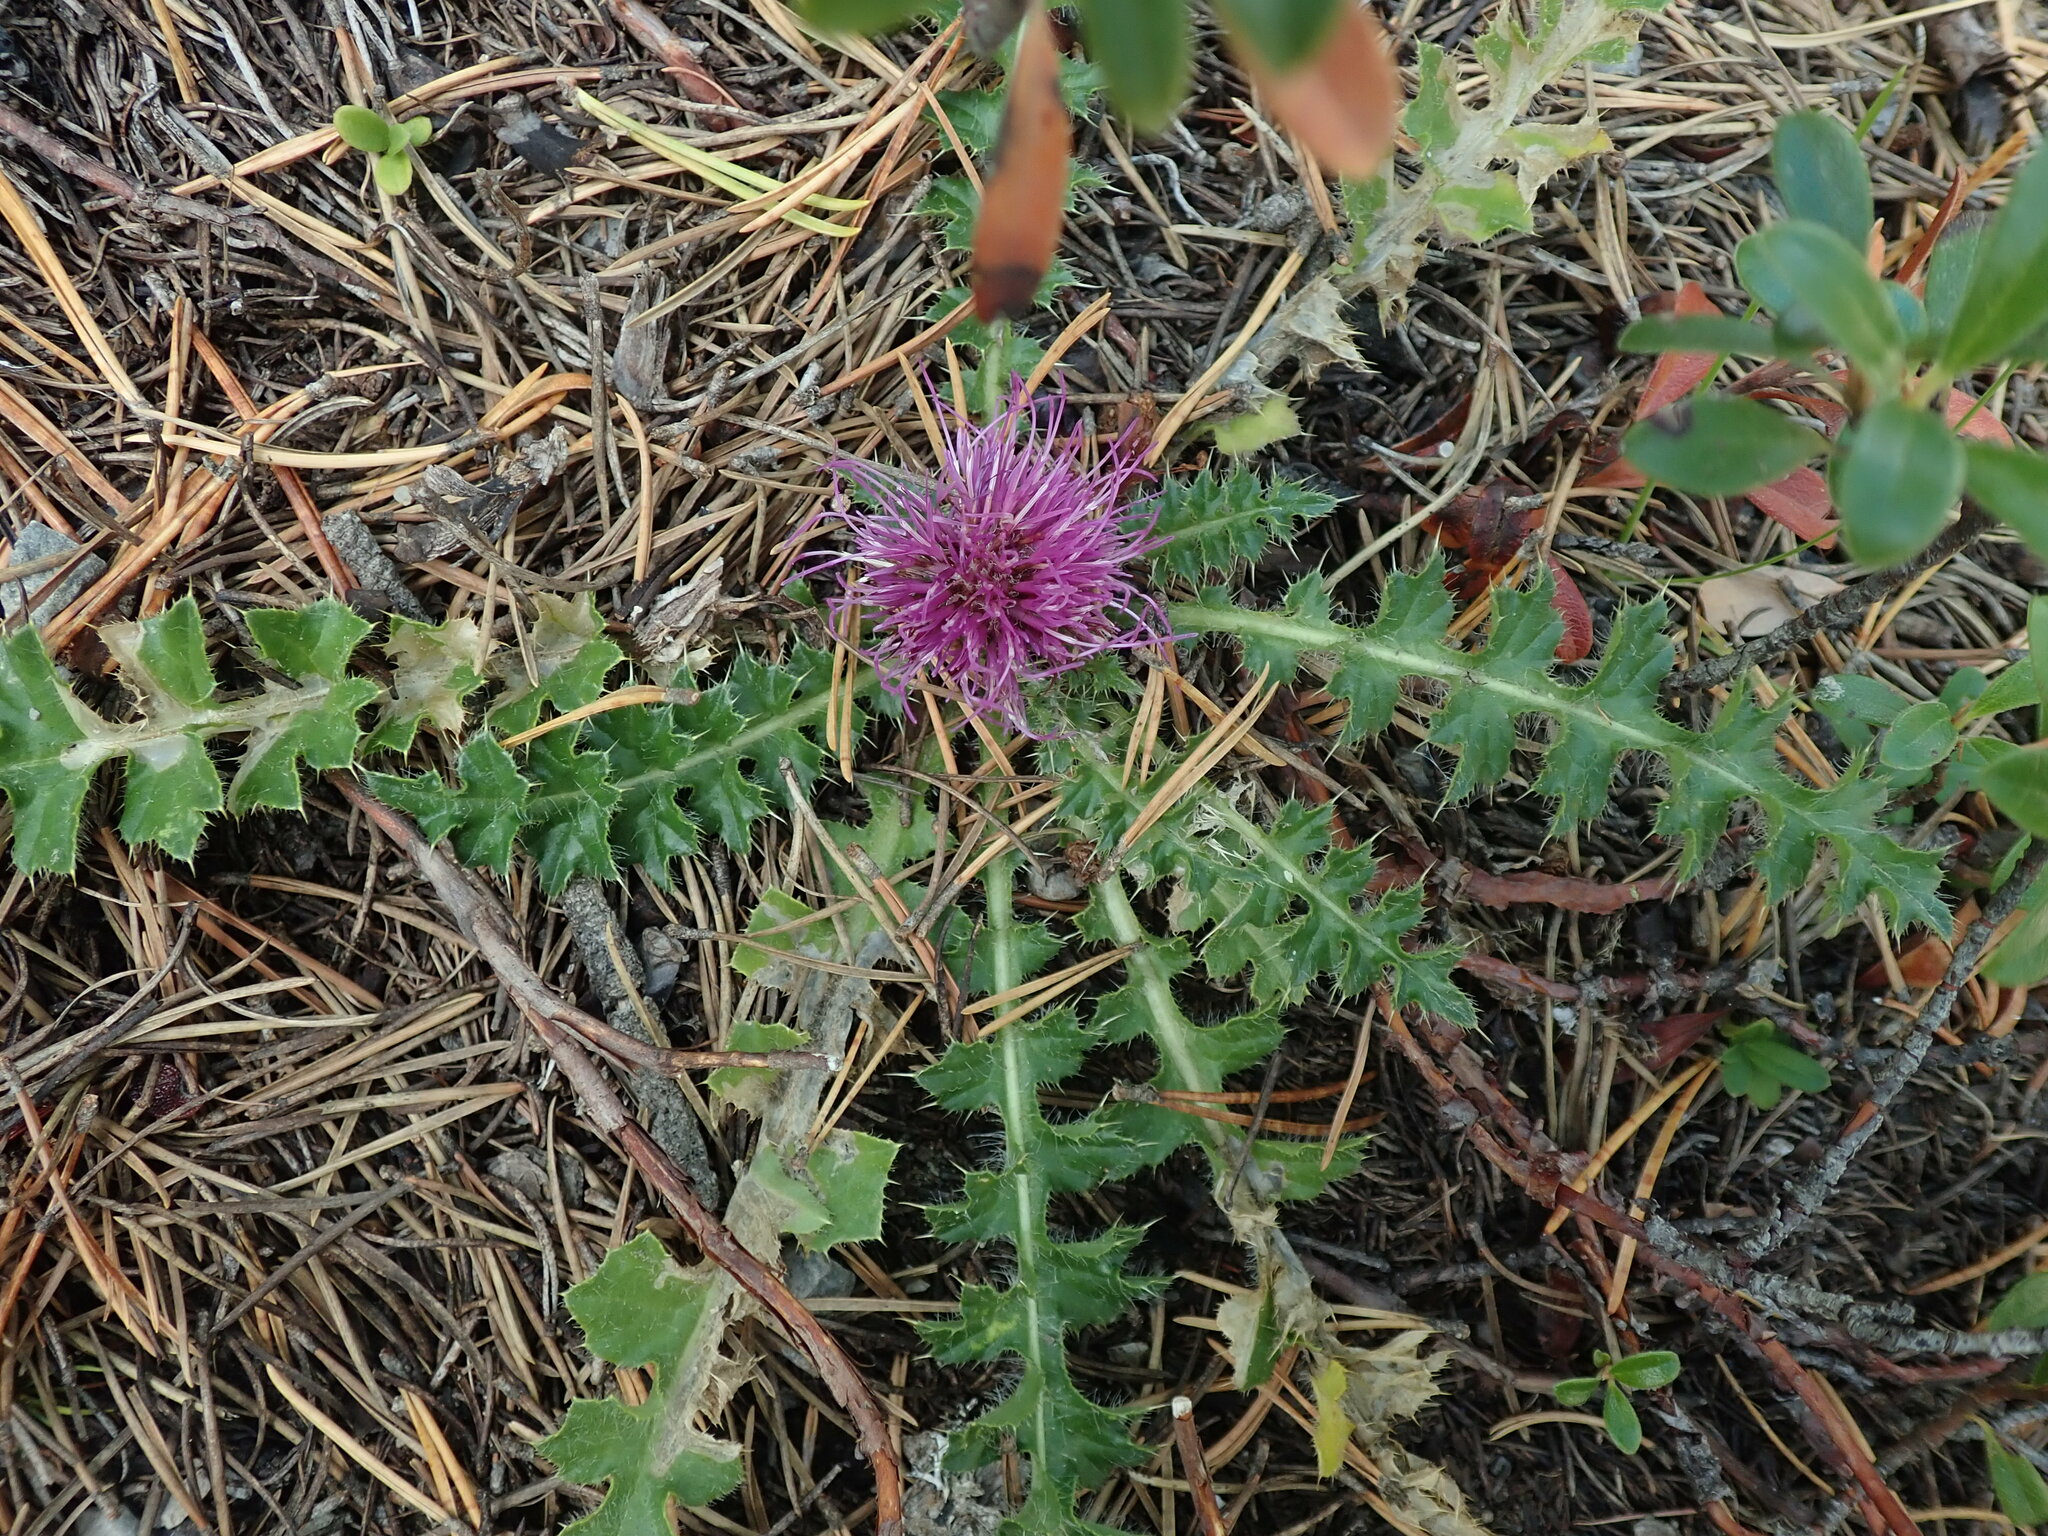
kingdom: Plantae
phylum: Tracheophyta
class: Magnoliopsida
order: Asterales
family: Asteraceae
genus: Cirsium
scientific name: Cirsium acaulon
